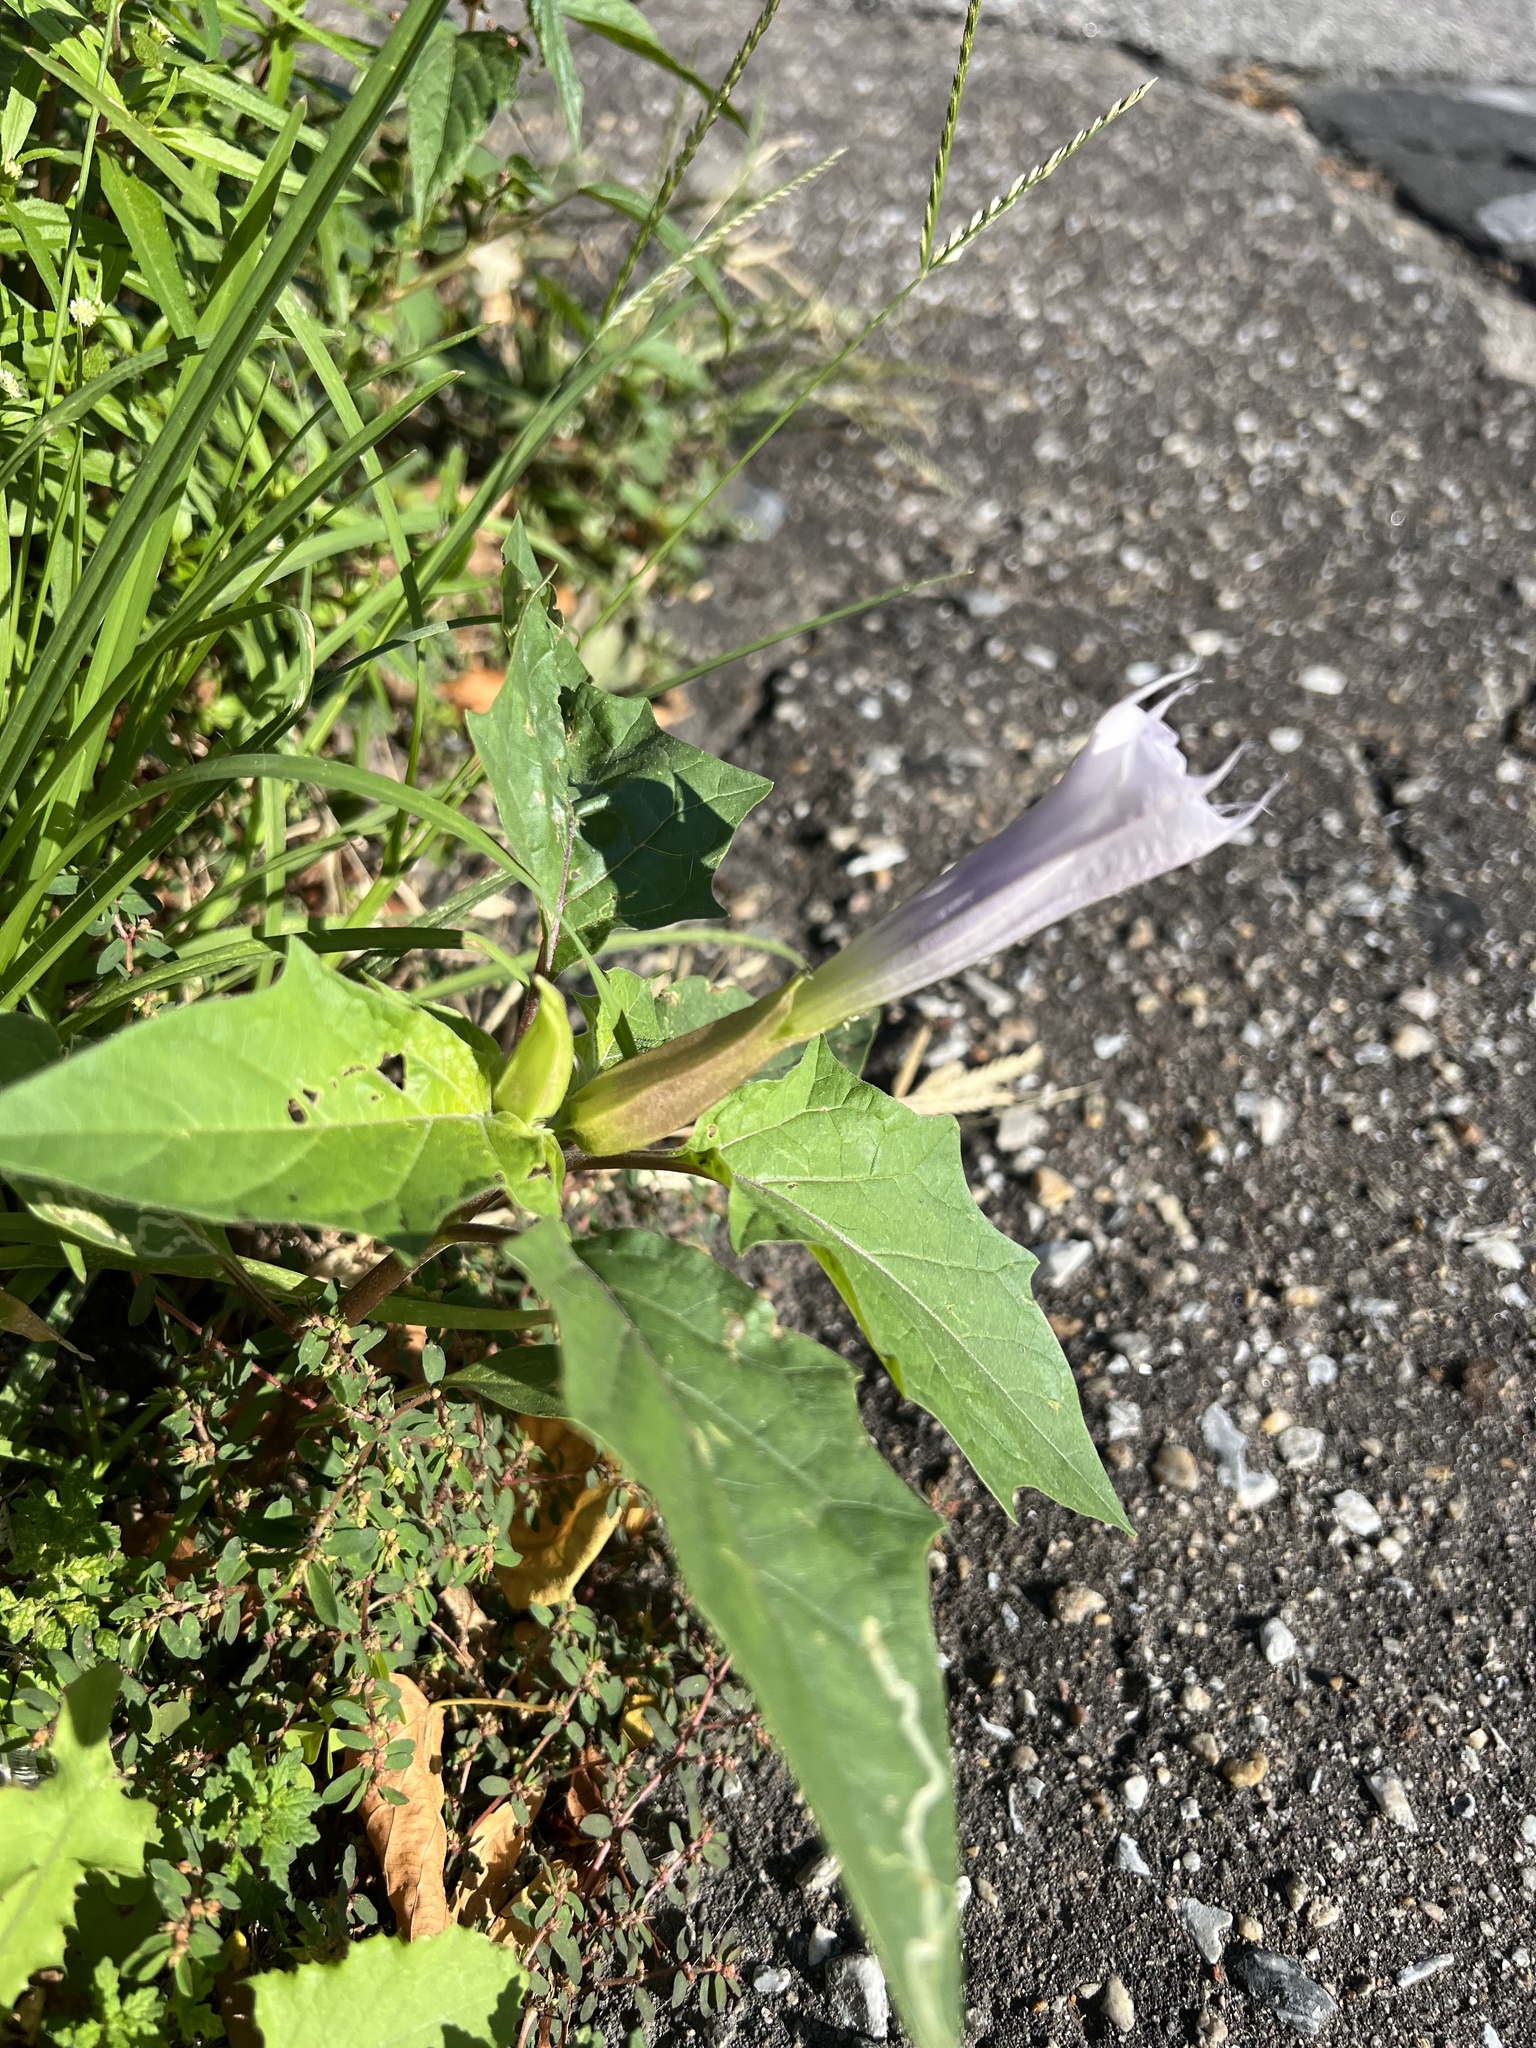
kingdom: Plantae
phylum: Tracheophyta
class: Magnoliopsida
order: Solanales
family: Solanaceae
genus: Datura
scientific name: Datura stramonium
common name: Thorn-apple
